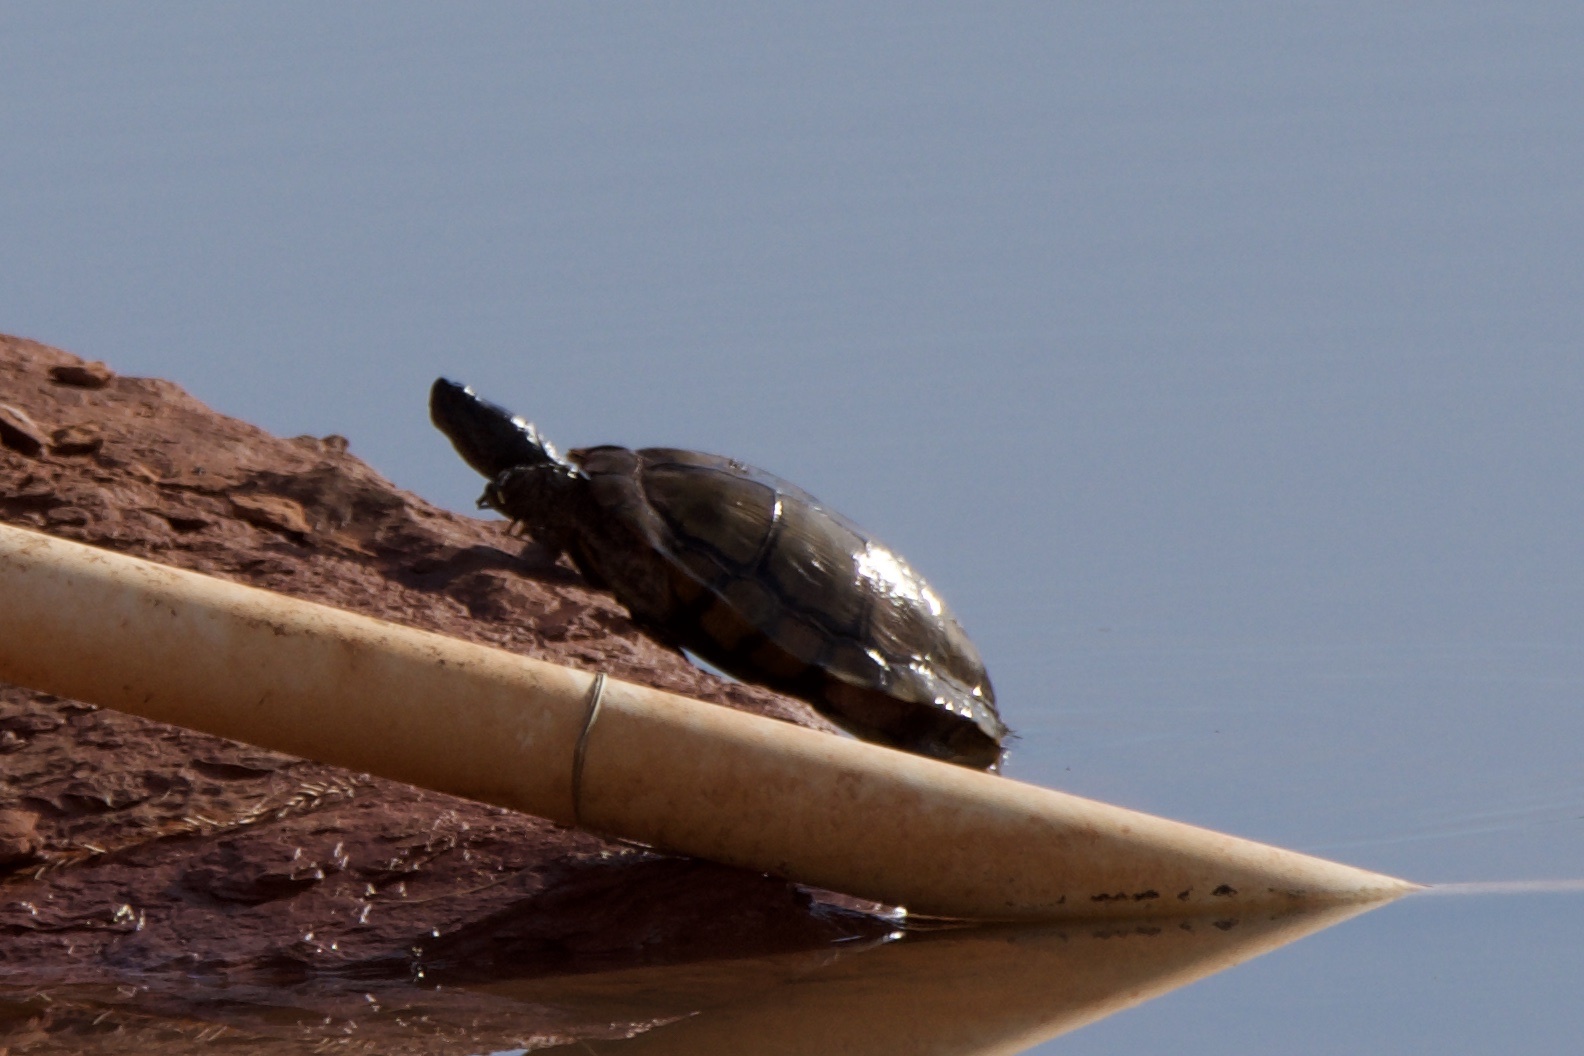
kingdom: Animalia
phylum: Chordata
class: Testudines
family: Emydidae
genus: Trachemys
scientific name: Trachemys scripta
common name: Slider
